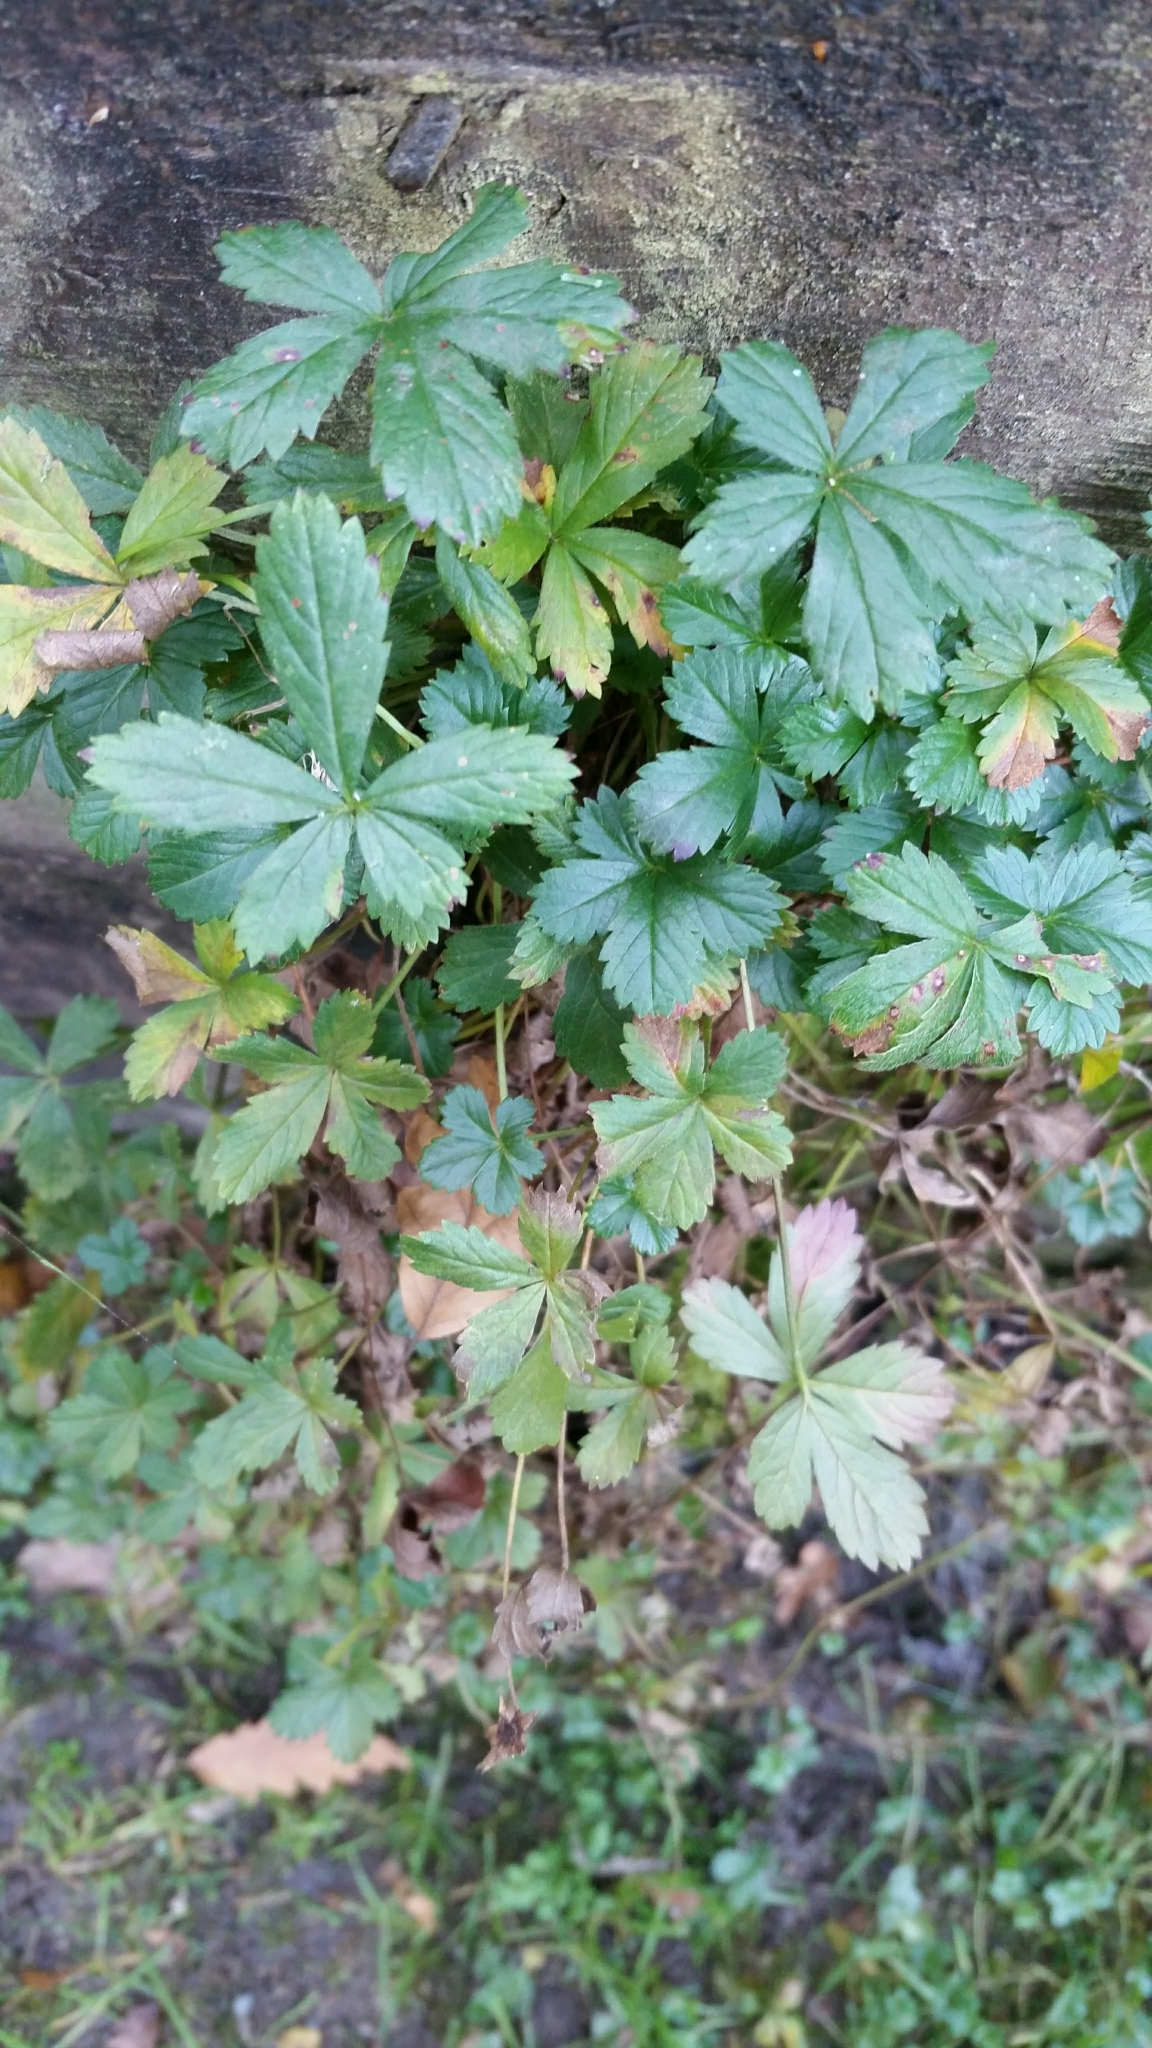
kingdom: Plantae
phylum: Tracheophyta
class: Magnoliopsida
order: Rosales
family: Rosaceae
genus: Potentilla
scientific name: Potentilla reptans
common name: Creeping cinquefoil
